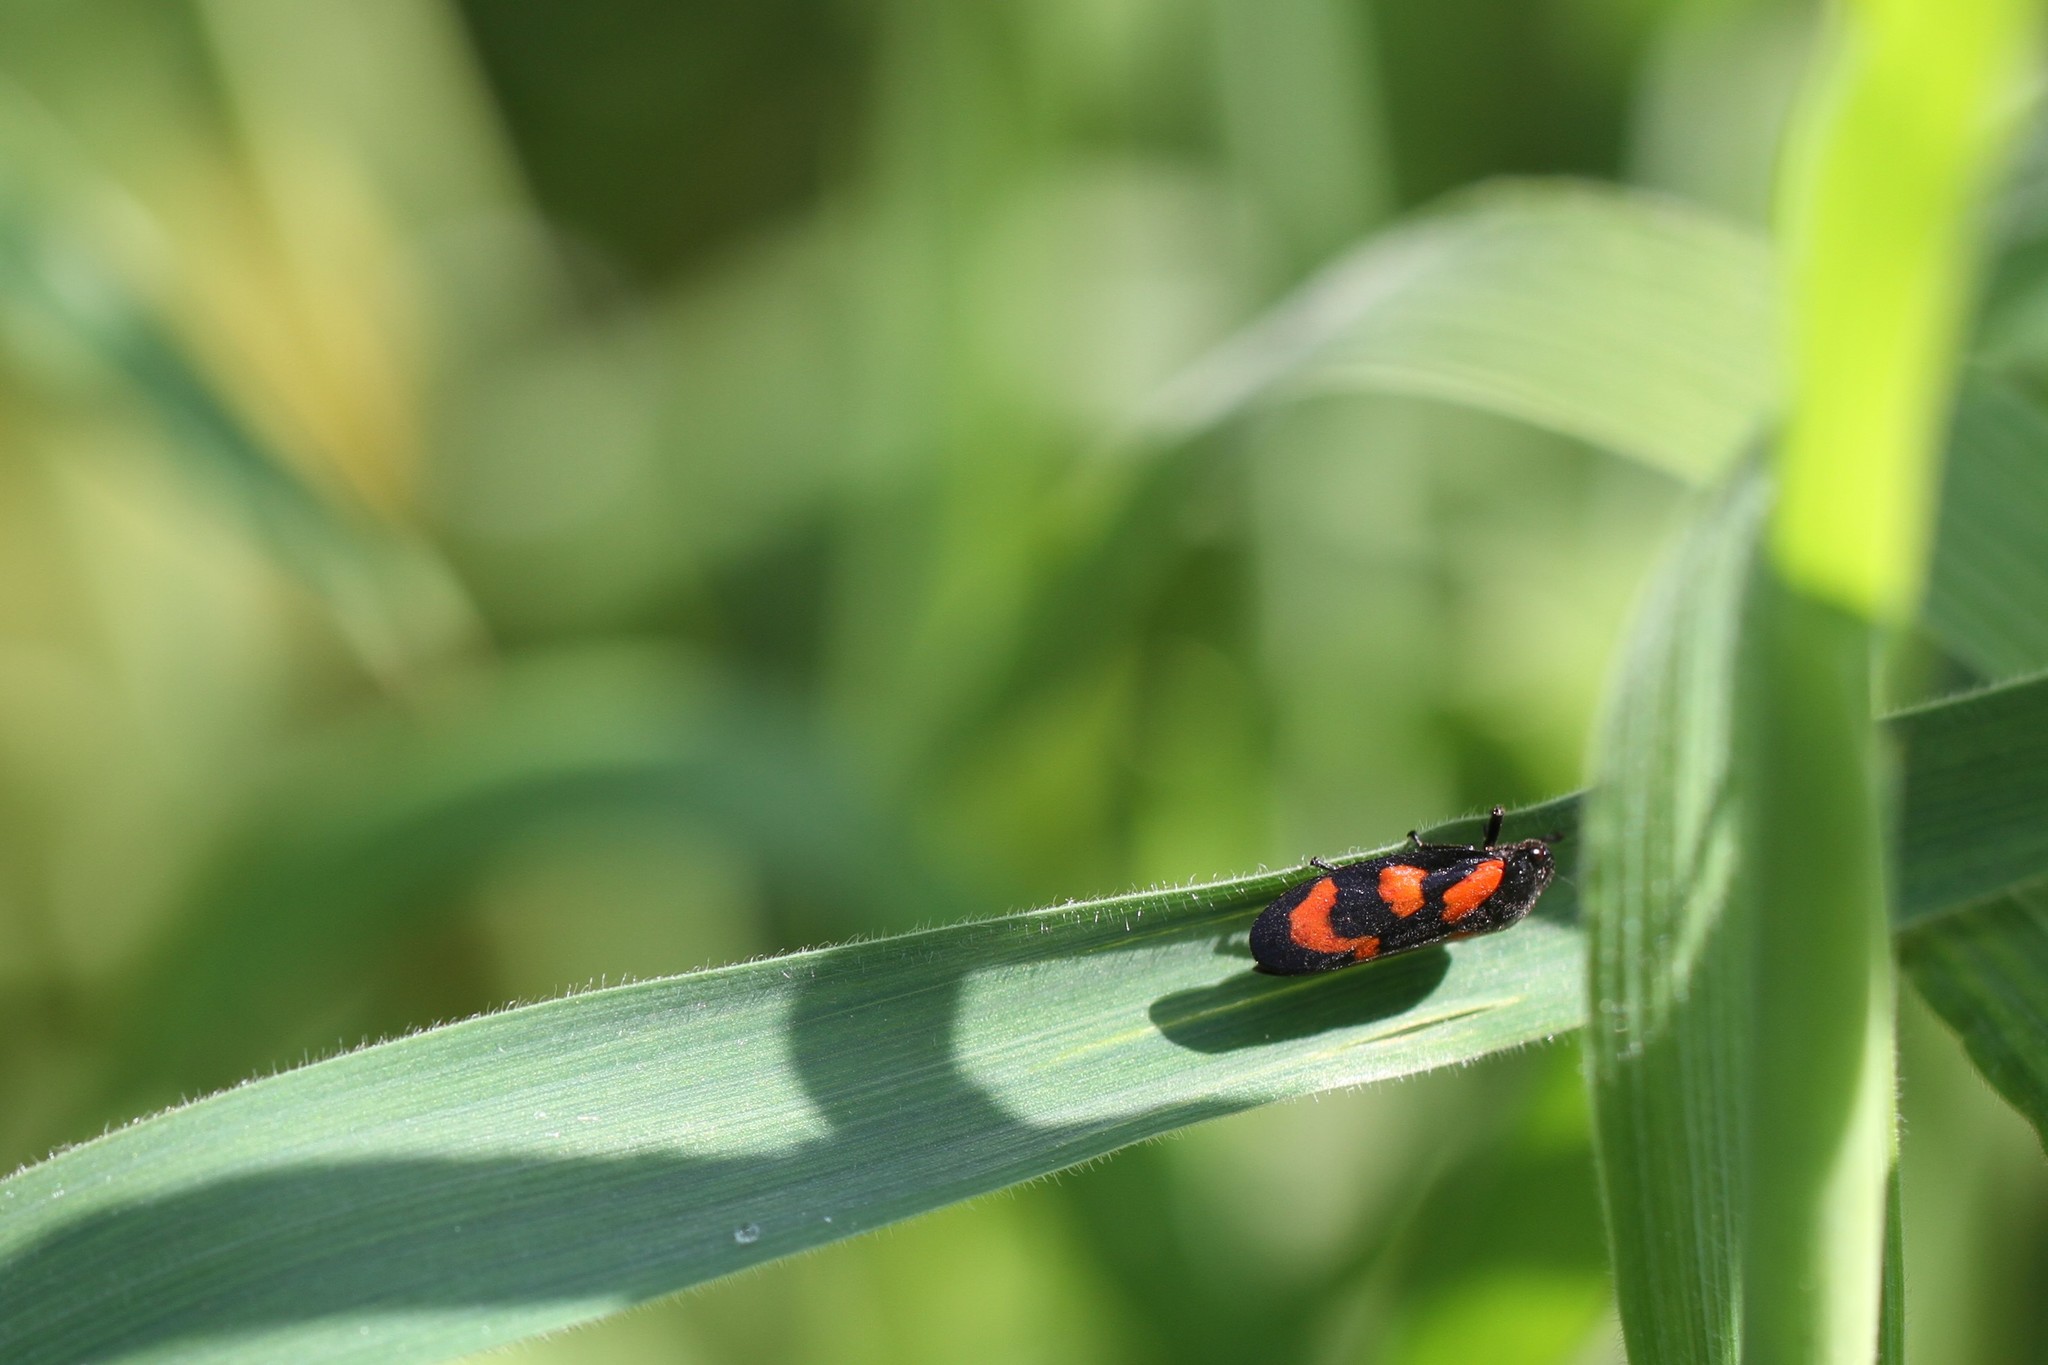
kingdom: Animalia
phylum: Arthropoda
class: Insecta
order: Hemiptera
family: Cercopidae
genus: Cercopis
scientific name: Cercopis vulnerata
